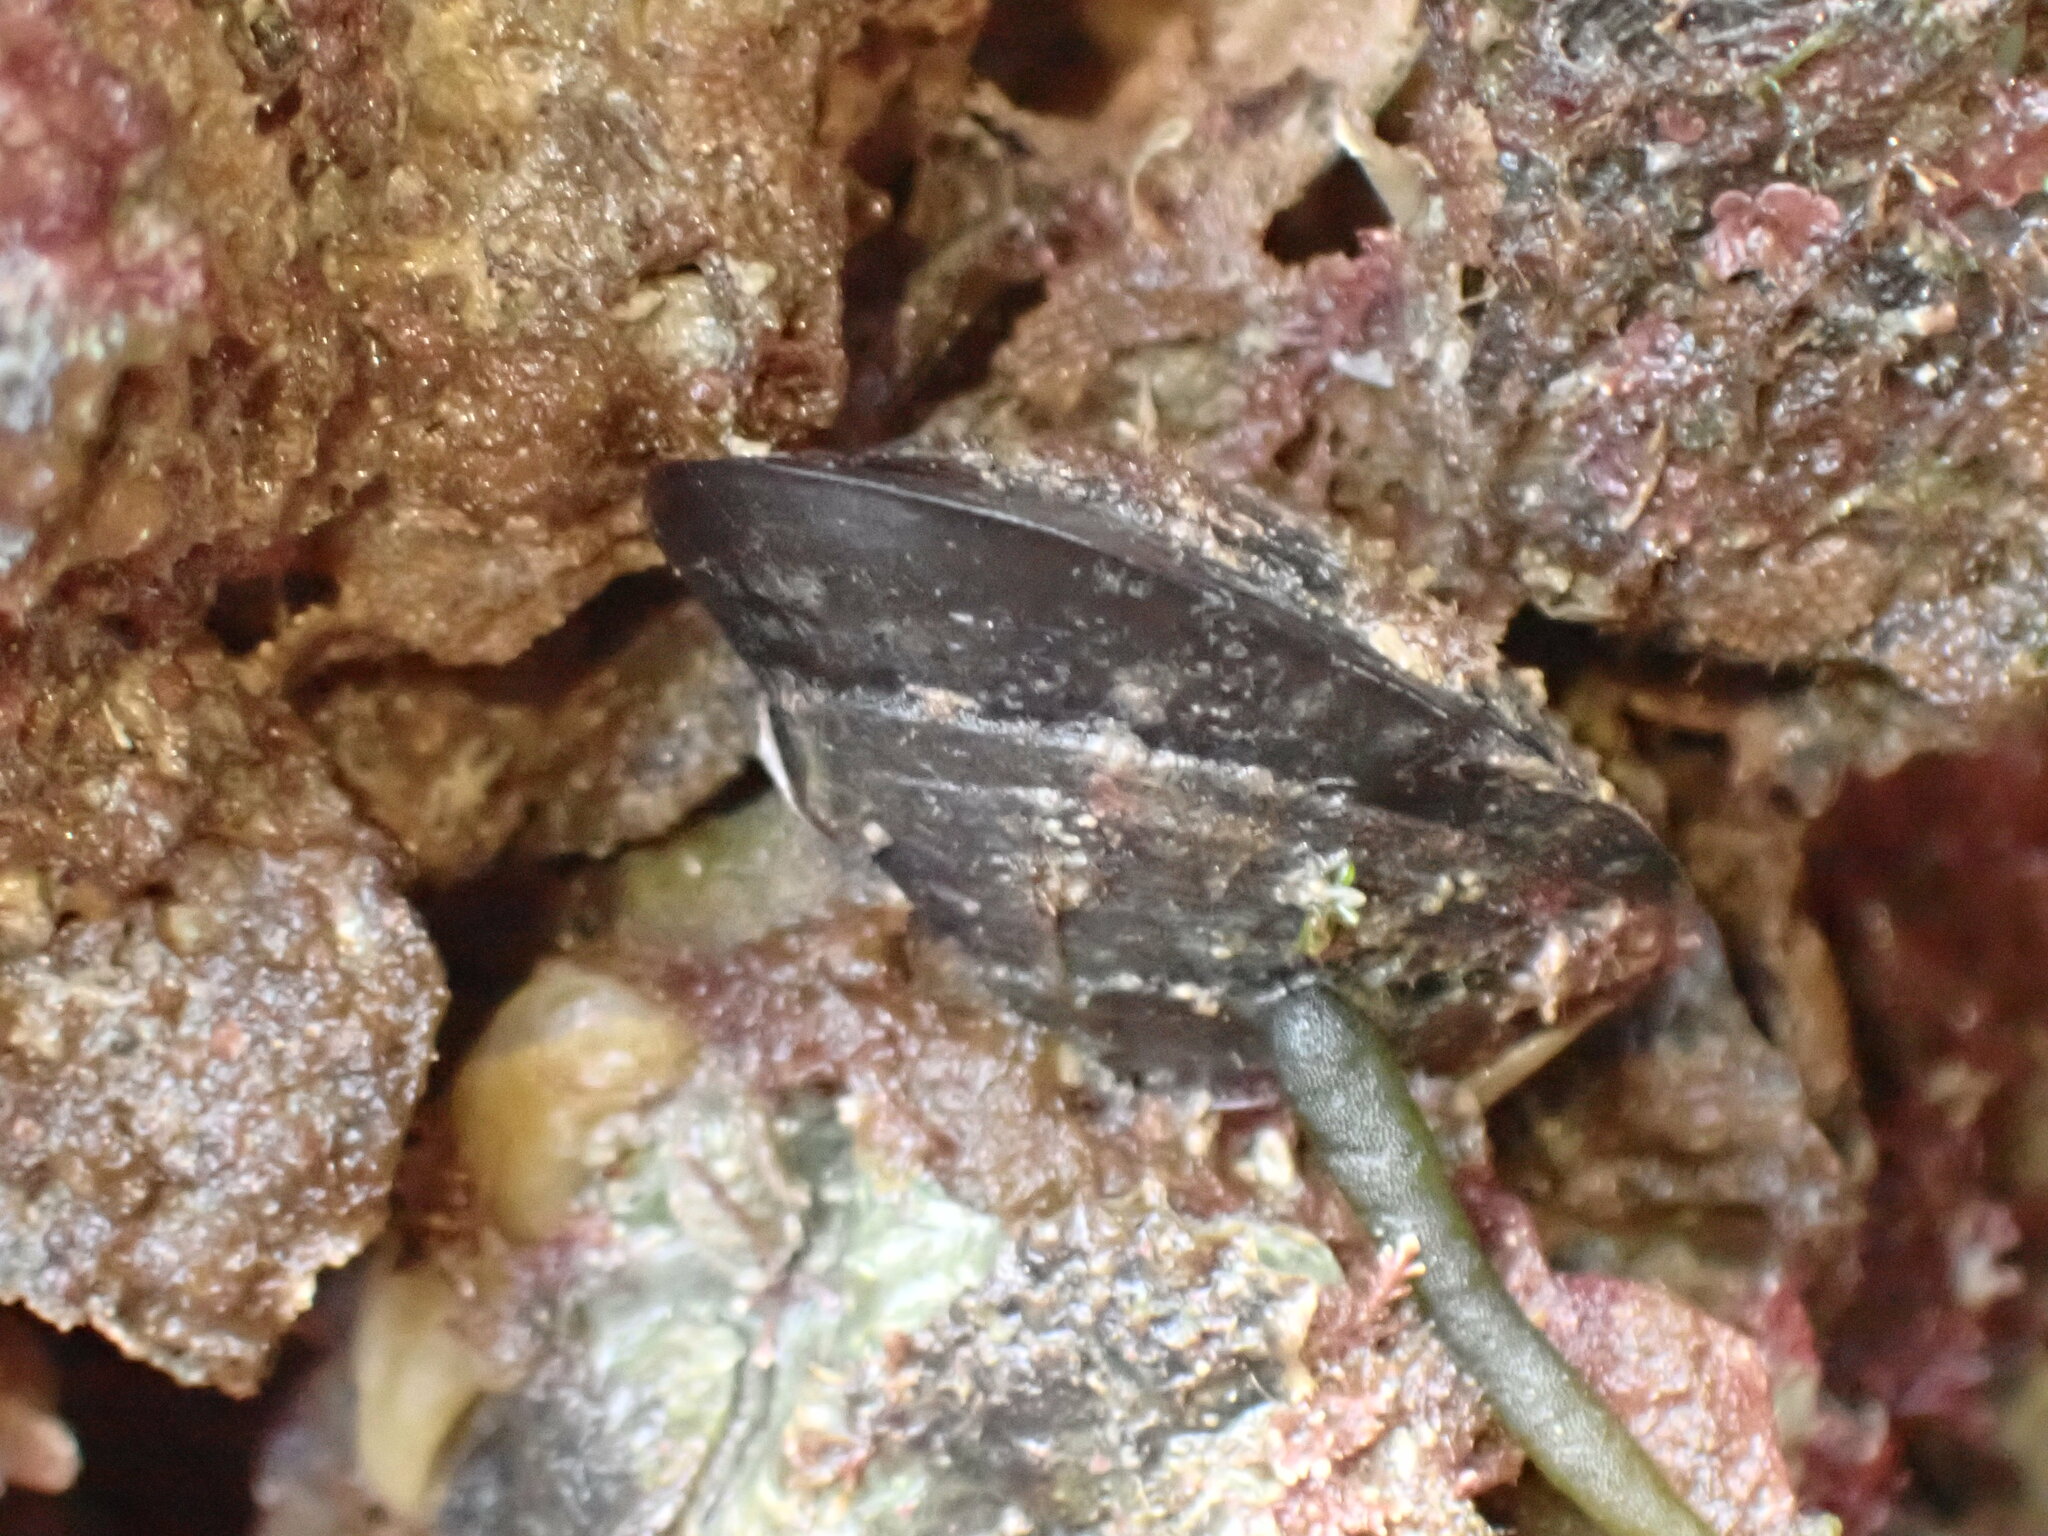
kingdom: Animalia
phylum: Mollusca
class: Bivalvia
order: Mytilida
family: Mytilidae
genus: Perna
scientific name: Perna canaliculus
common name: New zealand greenshelltm
